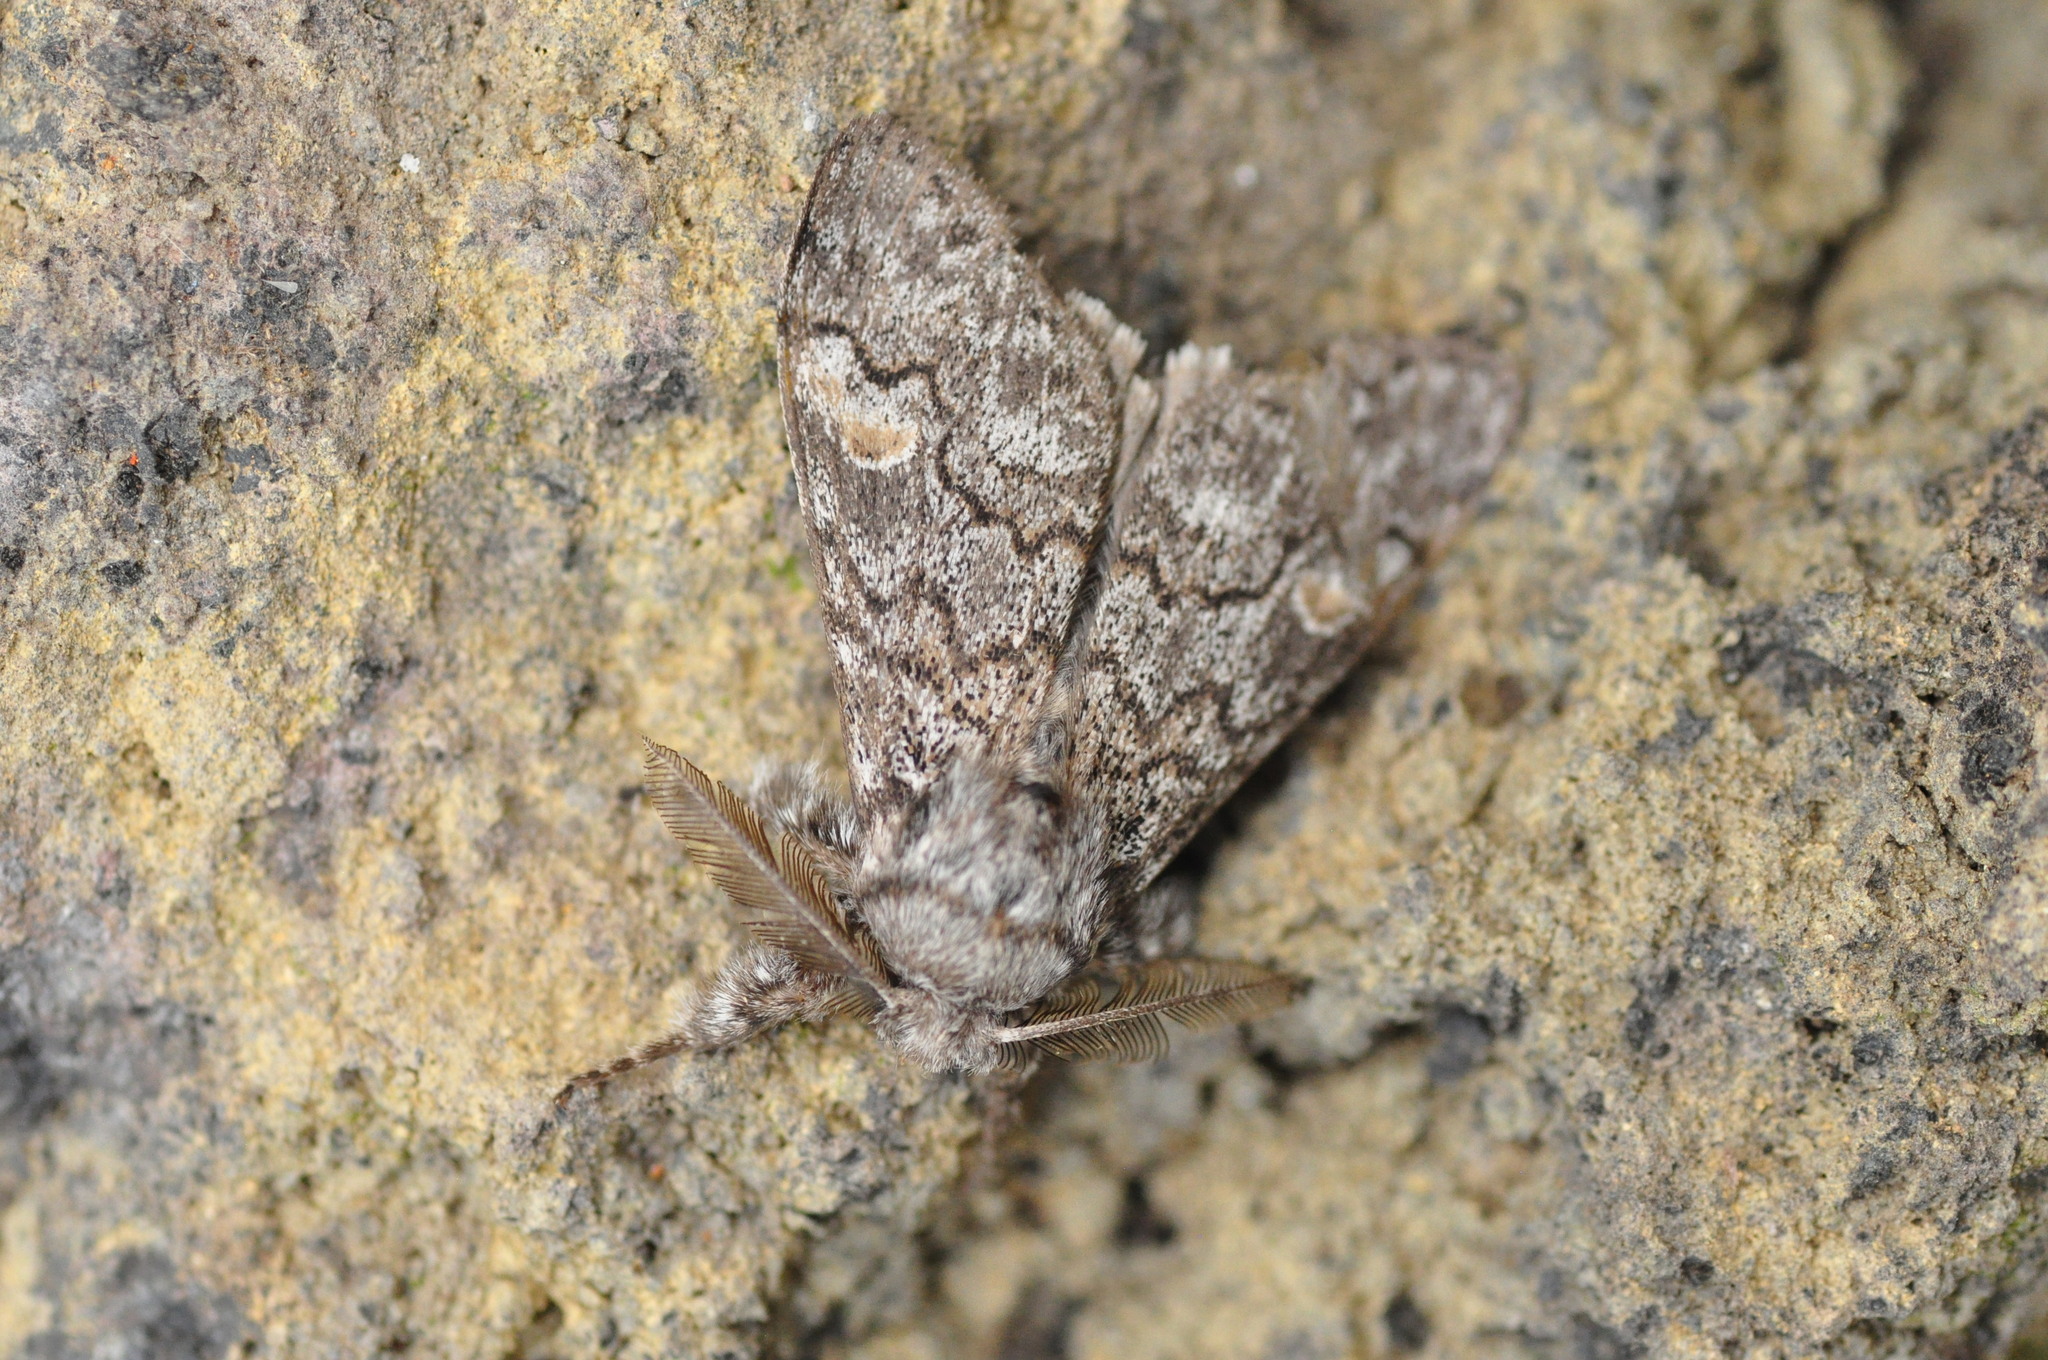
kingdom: Animalia
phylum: Arthropoda
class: Insecta
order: Lepidoptera
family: Erebidae
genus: Calliteara
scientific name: Calliteara
